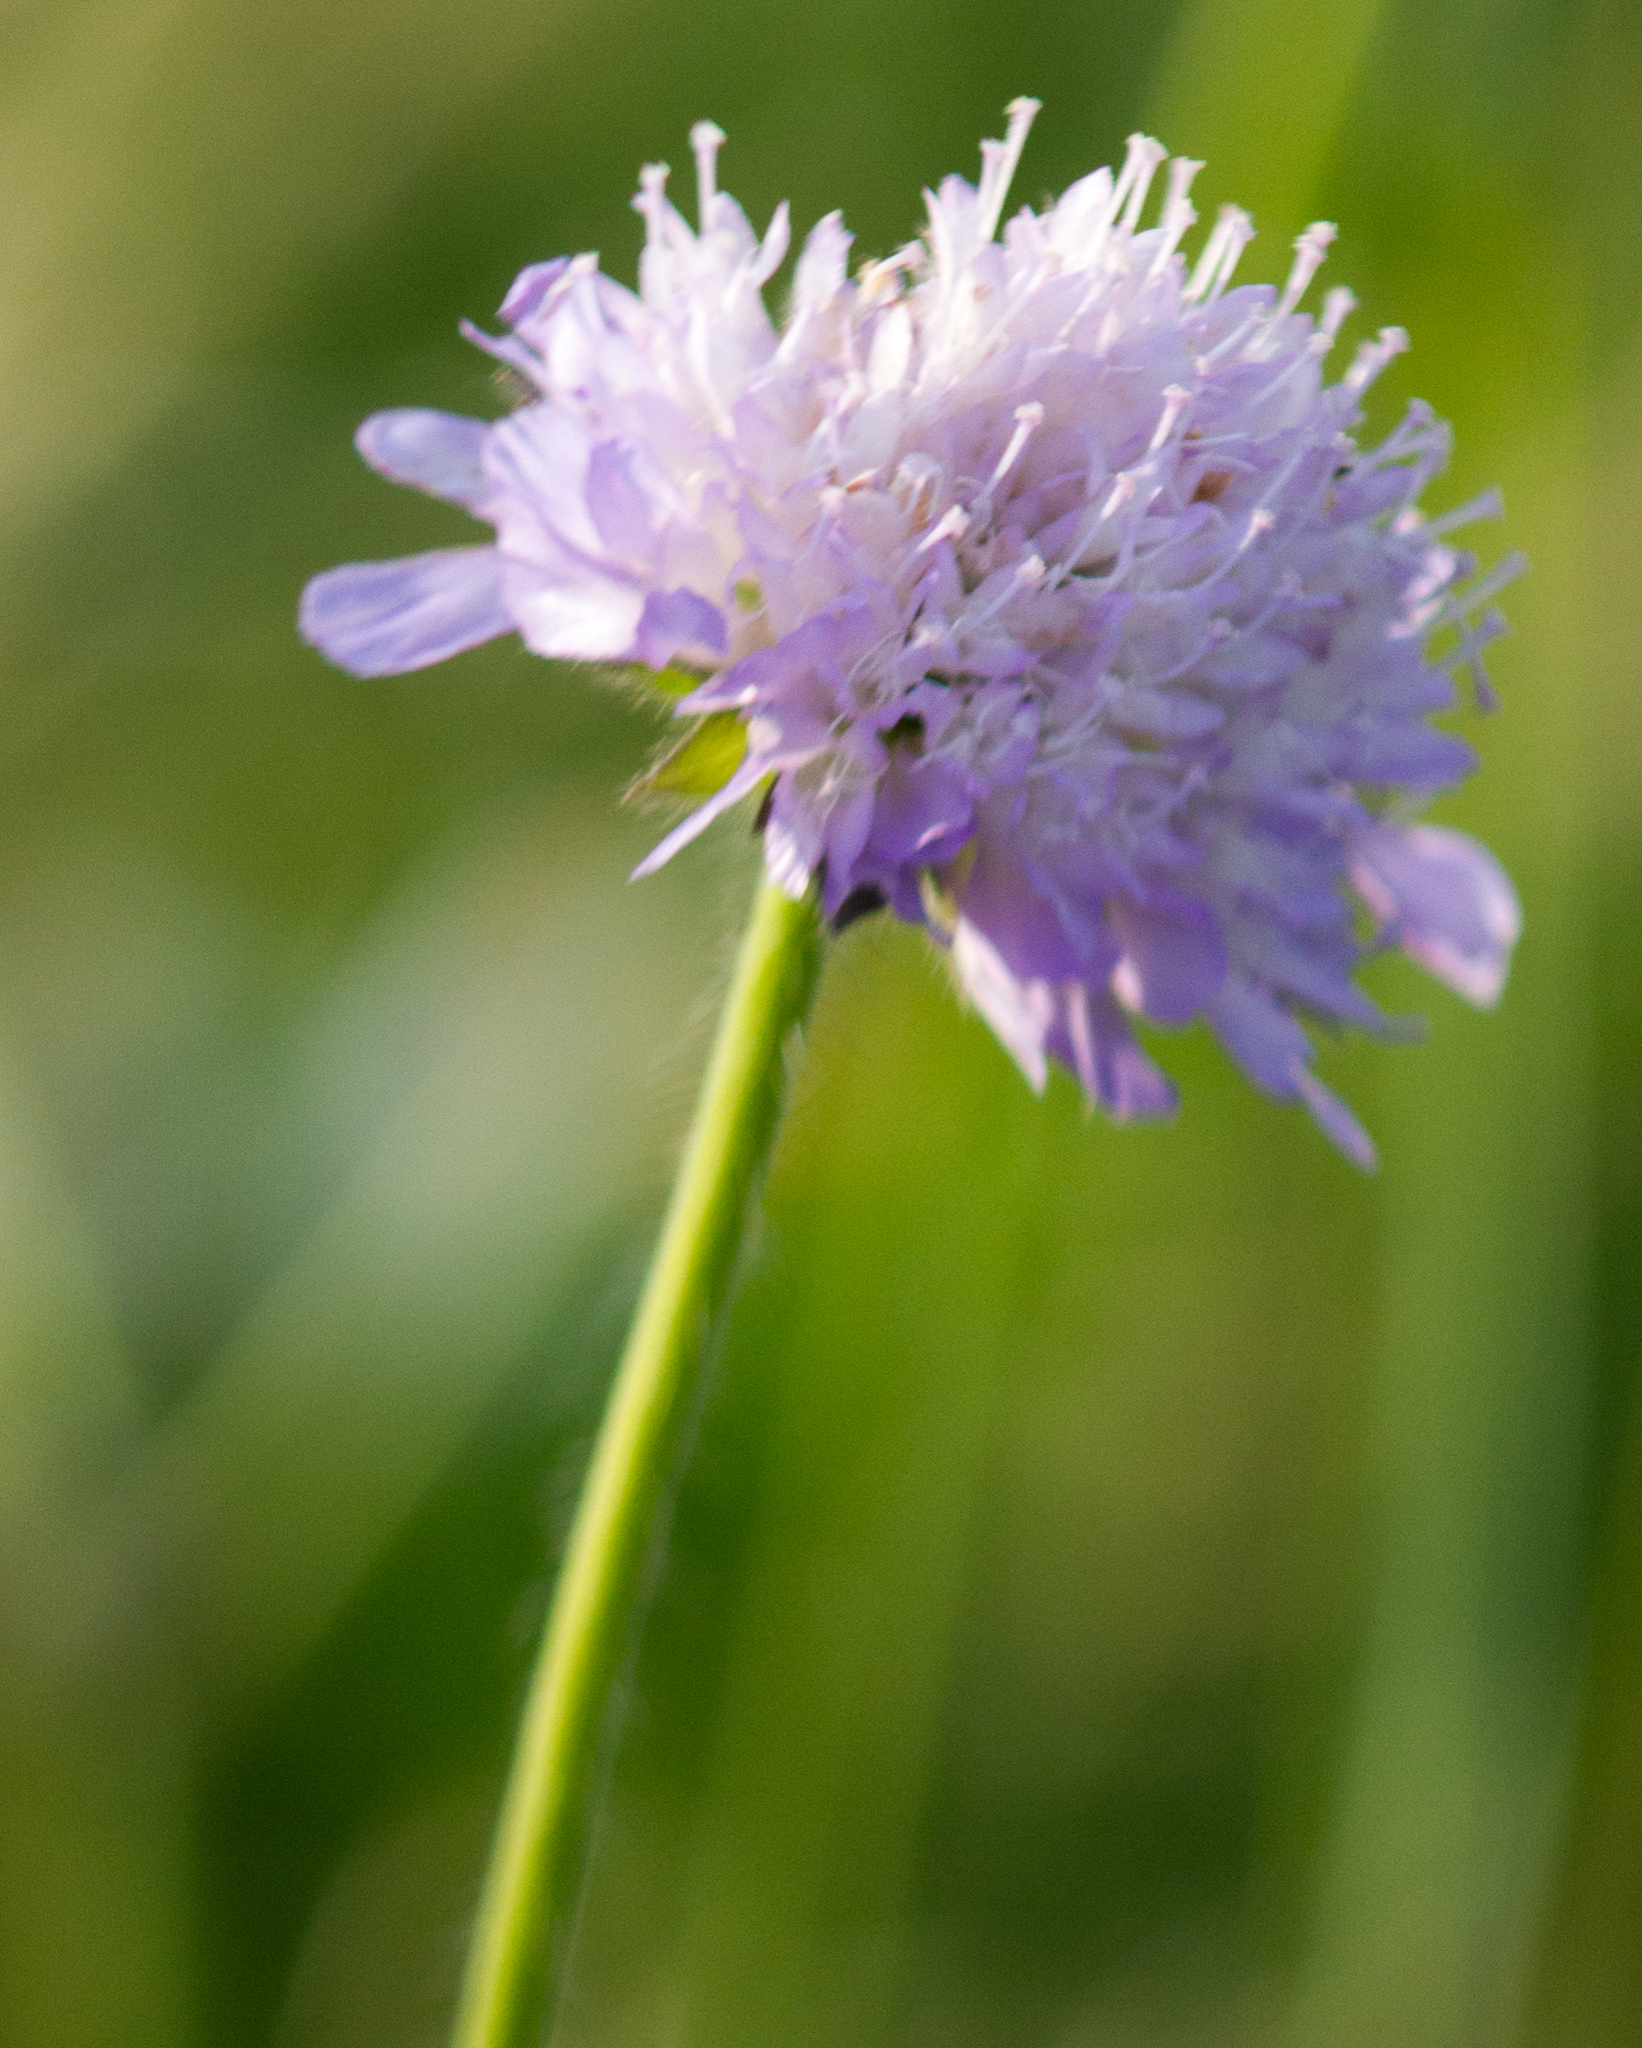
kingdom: Plantae
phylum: Tracheophyta
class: Magnoliopsida
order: Dipsacales
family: Caprifoliaceae
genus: Knautia
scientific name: Knautia arvensis
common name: Field scabiosa
